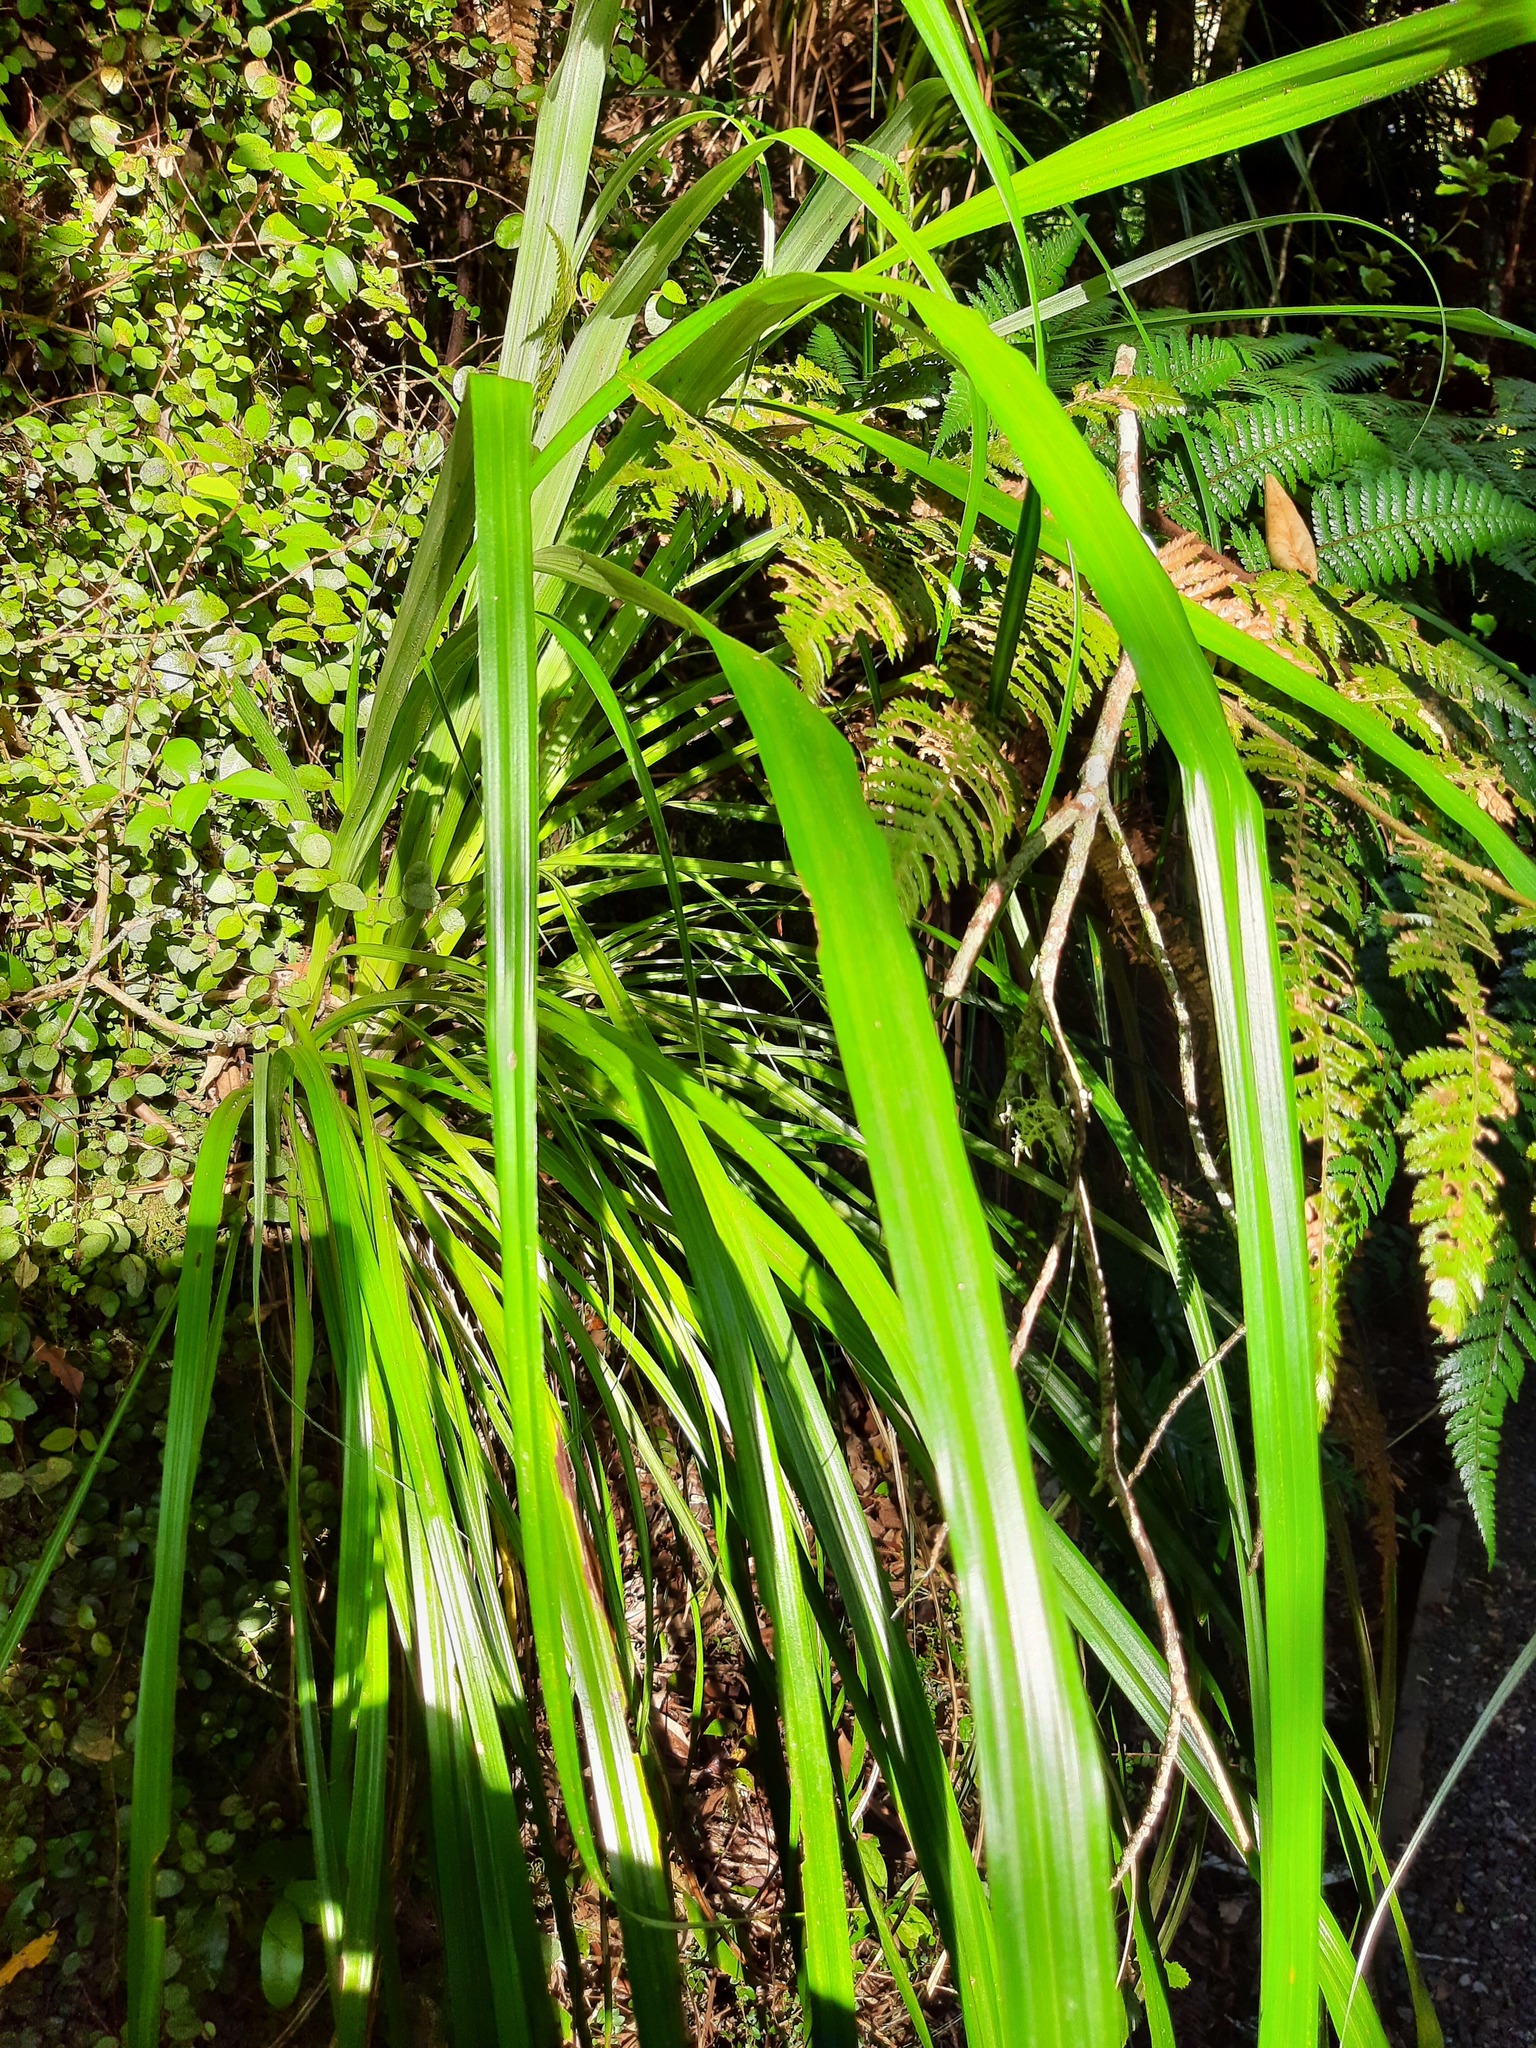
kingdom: Plantae
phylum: Tracheophyta
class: Liliopsida
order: Asparagales
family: Asteliaceae
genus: Astelia
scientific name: Astelia solandri
